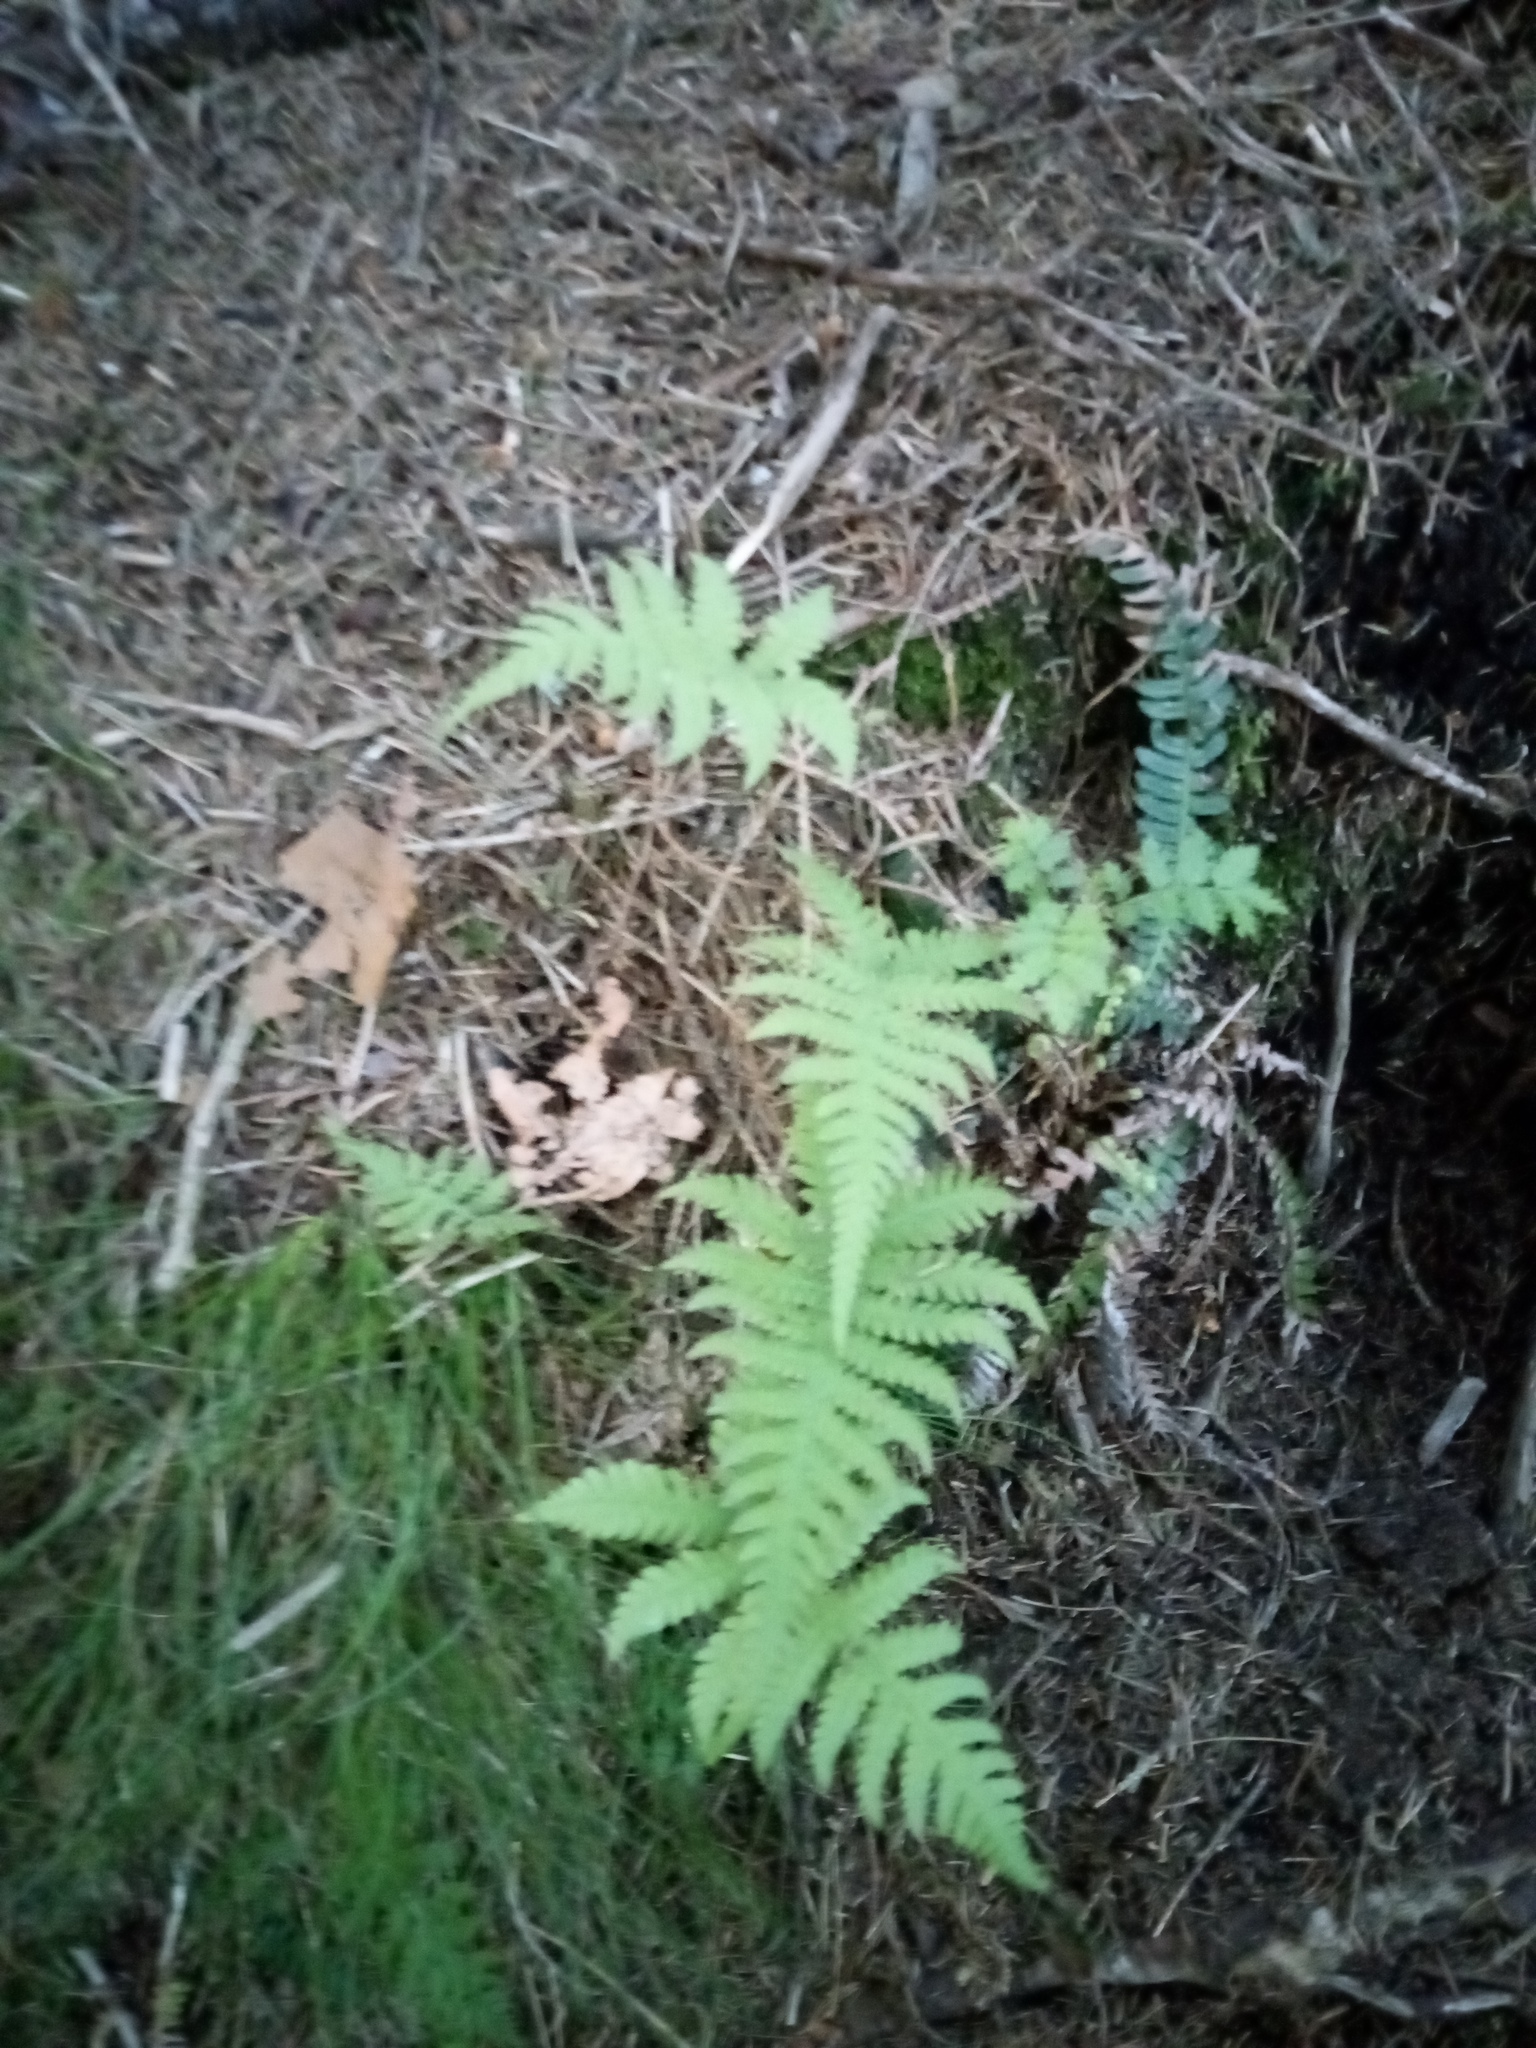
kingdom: Plantae
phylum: Tracheophyta
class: Polypodiopsida
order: Polypodiales
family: Thelypteridaceae
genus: Phegopteris
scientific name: Phegopteris connectilis
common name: Beech fern
